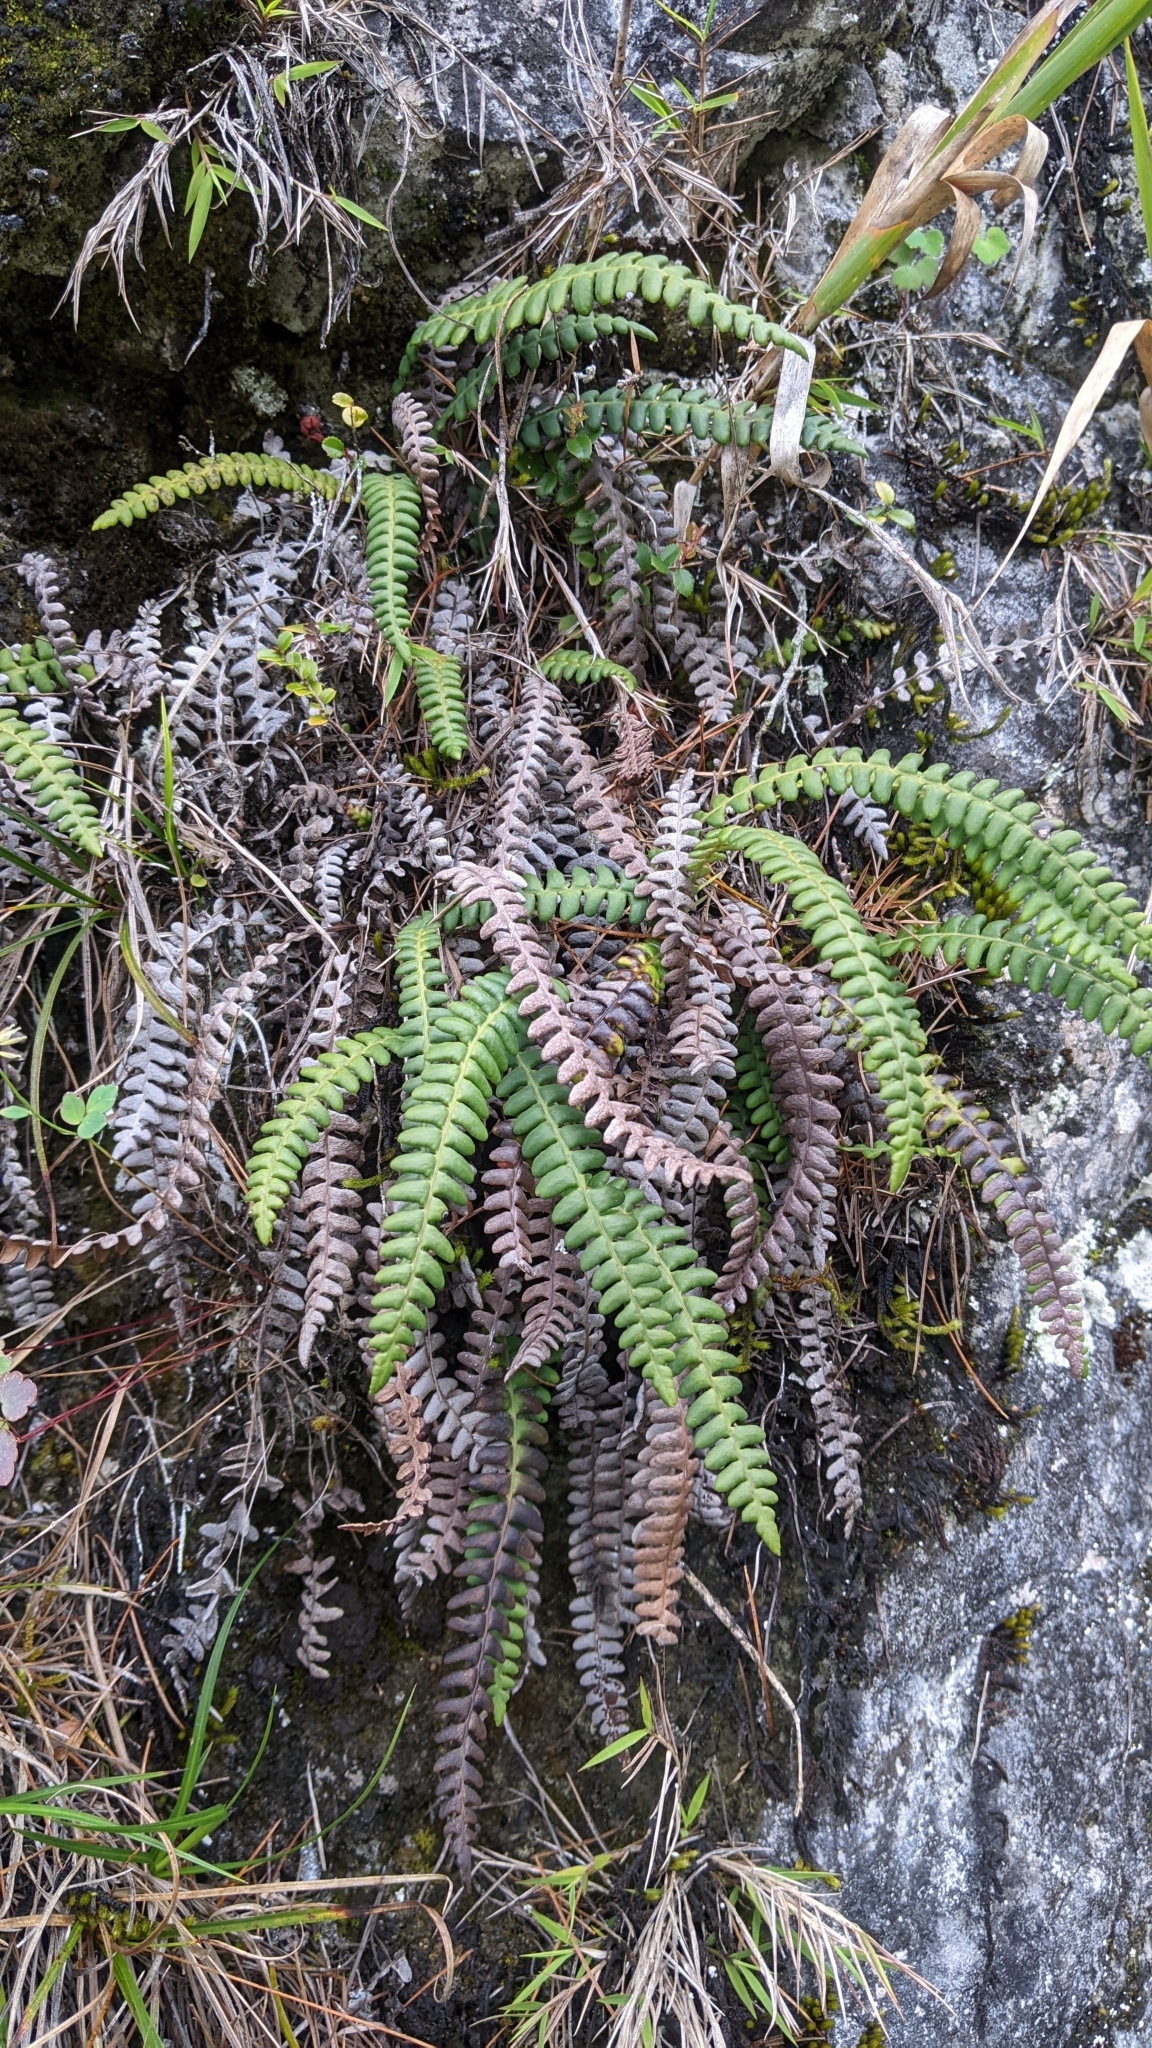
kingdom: Plantae
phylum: Tracheophyta
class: Polypodiopsida
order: Polypodiales
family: Blechnaceae
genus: Cleistoblechnum
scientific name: Cleistoblechnum eburneum
